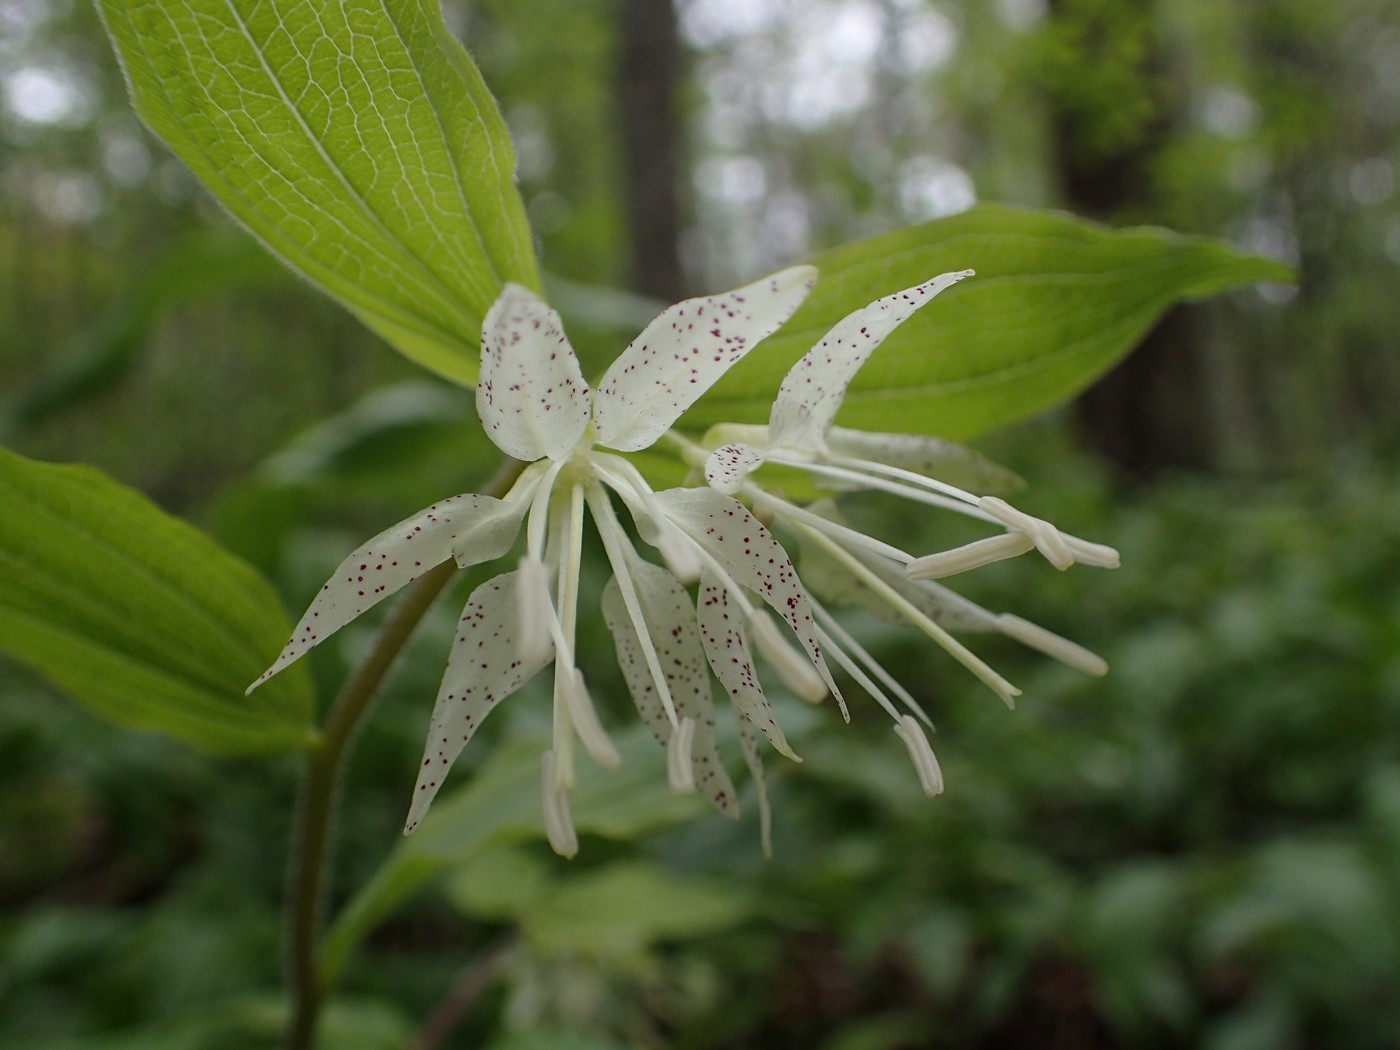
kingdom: Plantae
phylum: Tracheophyta
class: Liliopsida
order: Liliales
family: Liliaceae
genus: Prosartes
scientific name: Prosartes maculata
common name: Yellow mandarin
